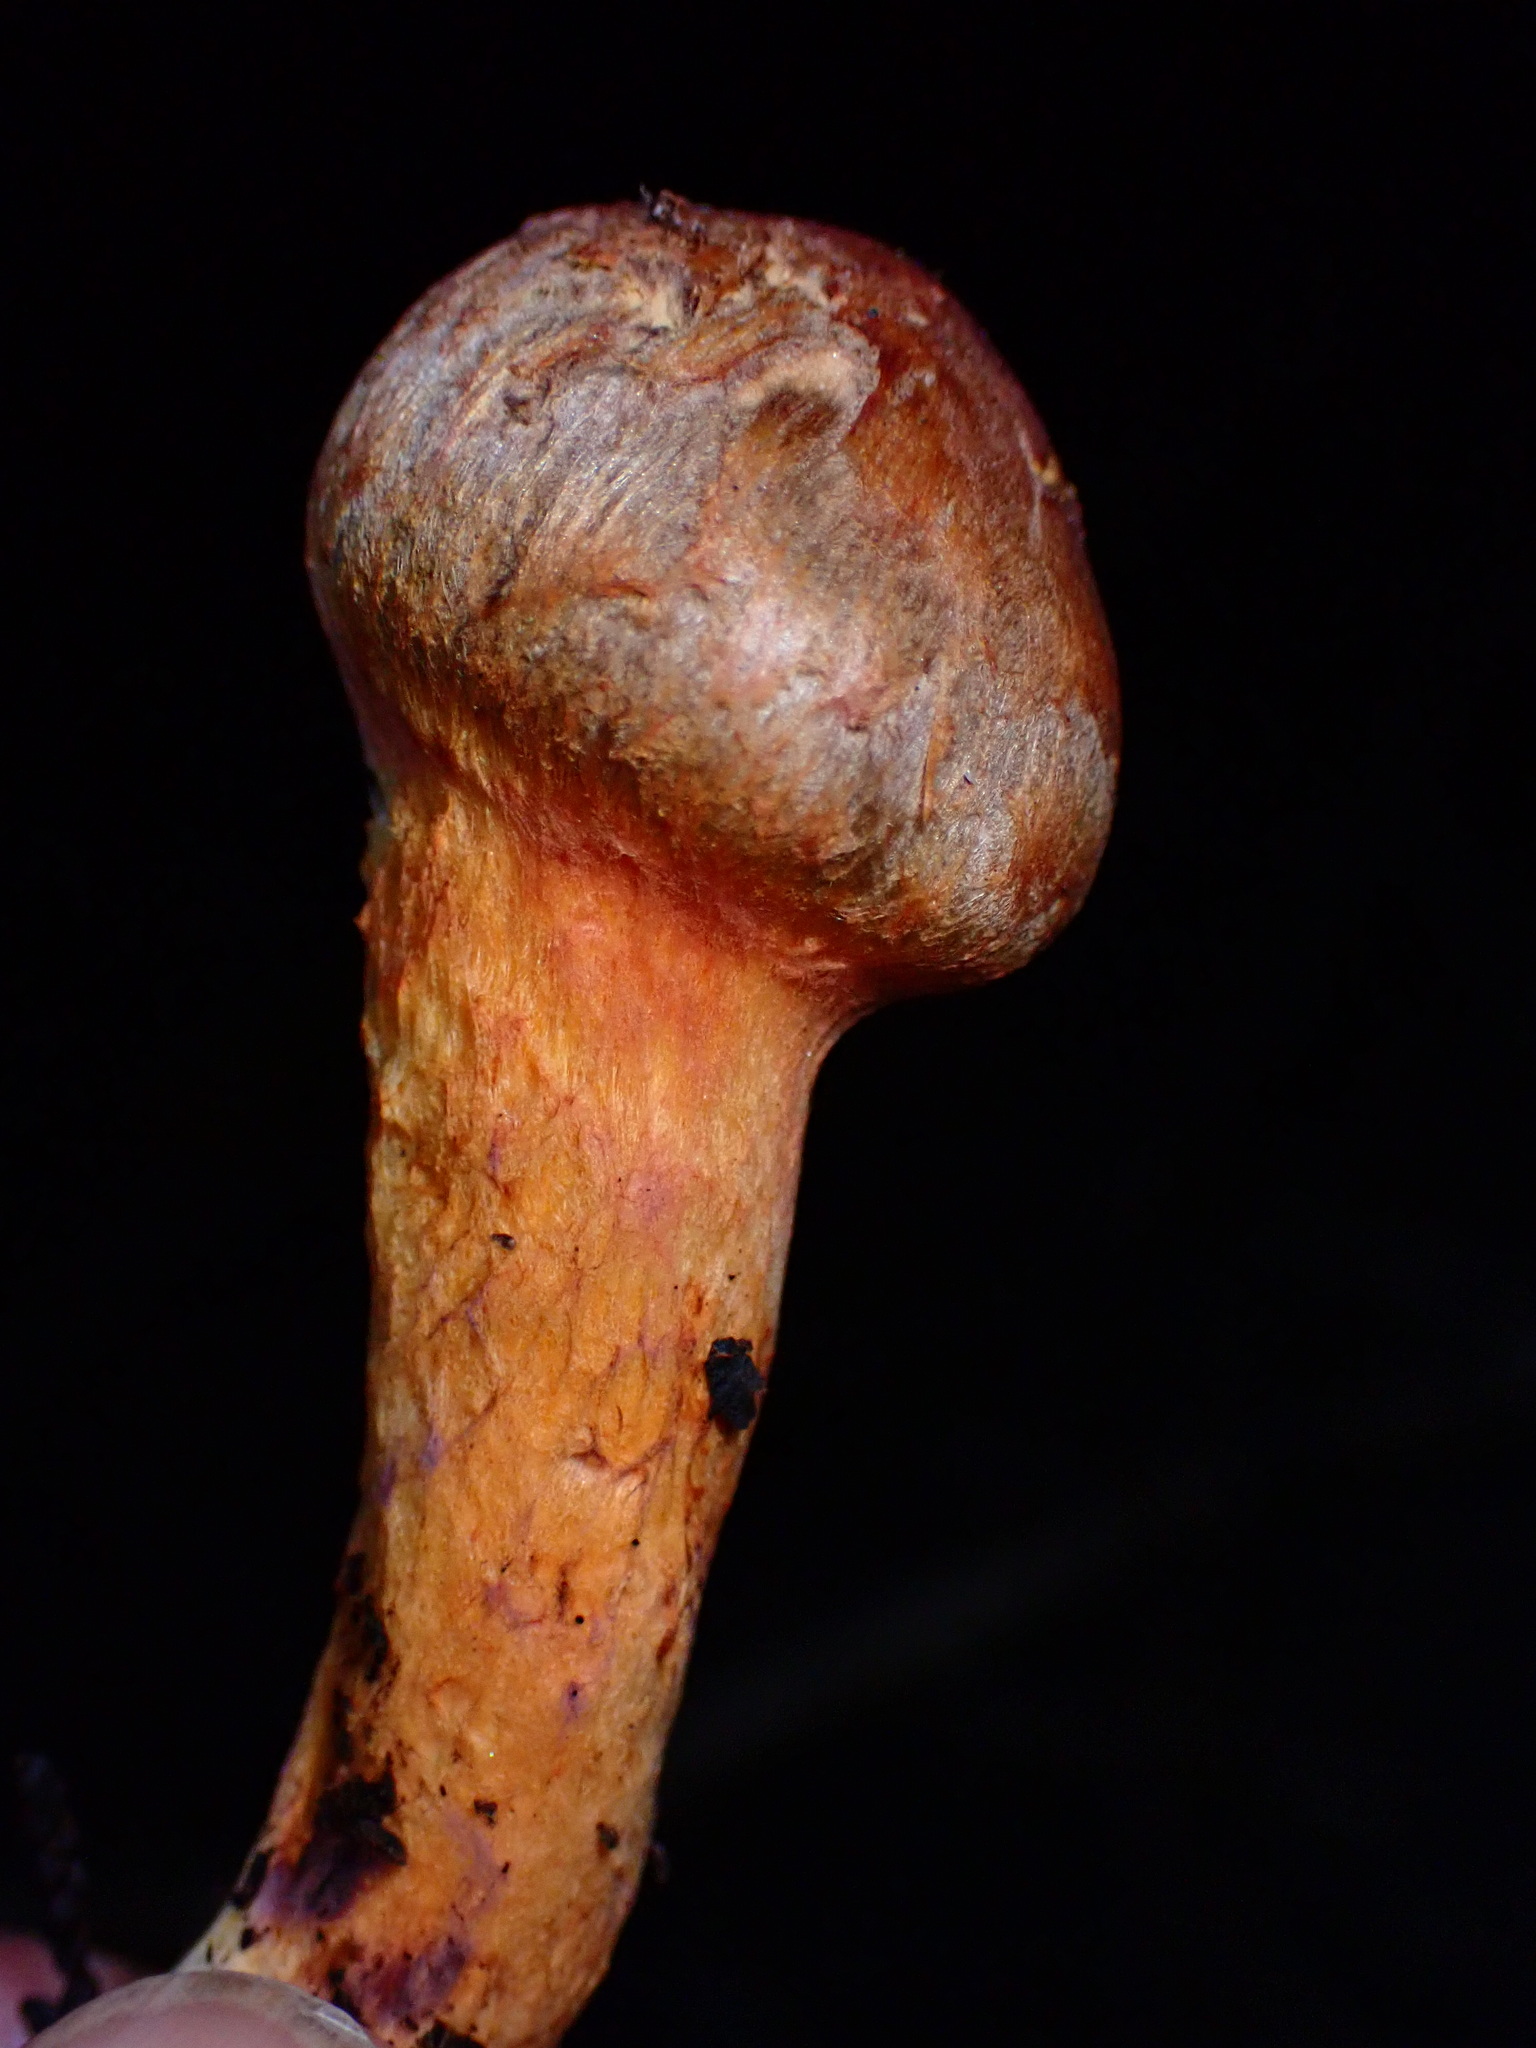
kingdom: Fungi
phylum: Basidiomycota
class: Agaricomycetes
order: Boletales
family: Gomphidiaceae
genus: Chroogomphus
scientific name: Chroogomphus vinicolor
